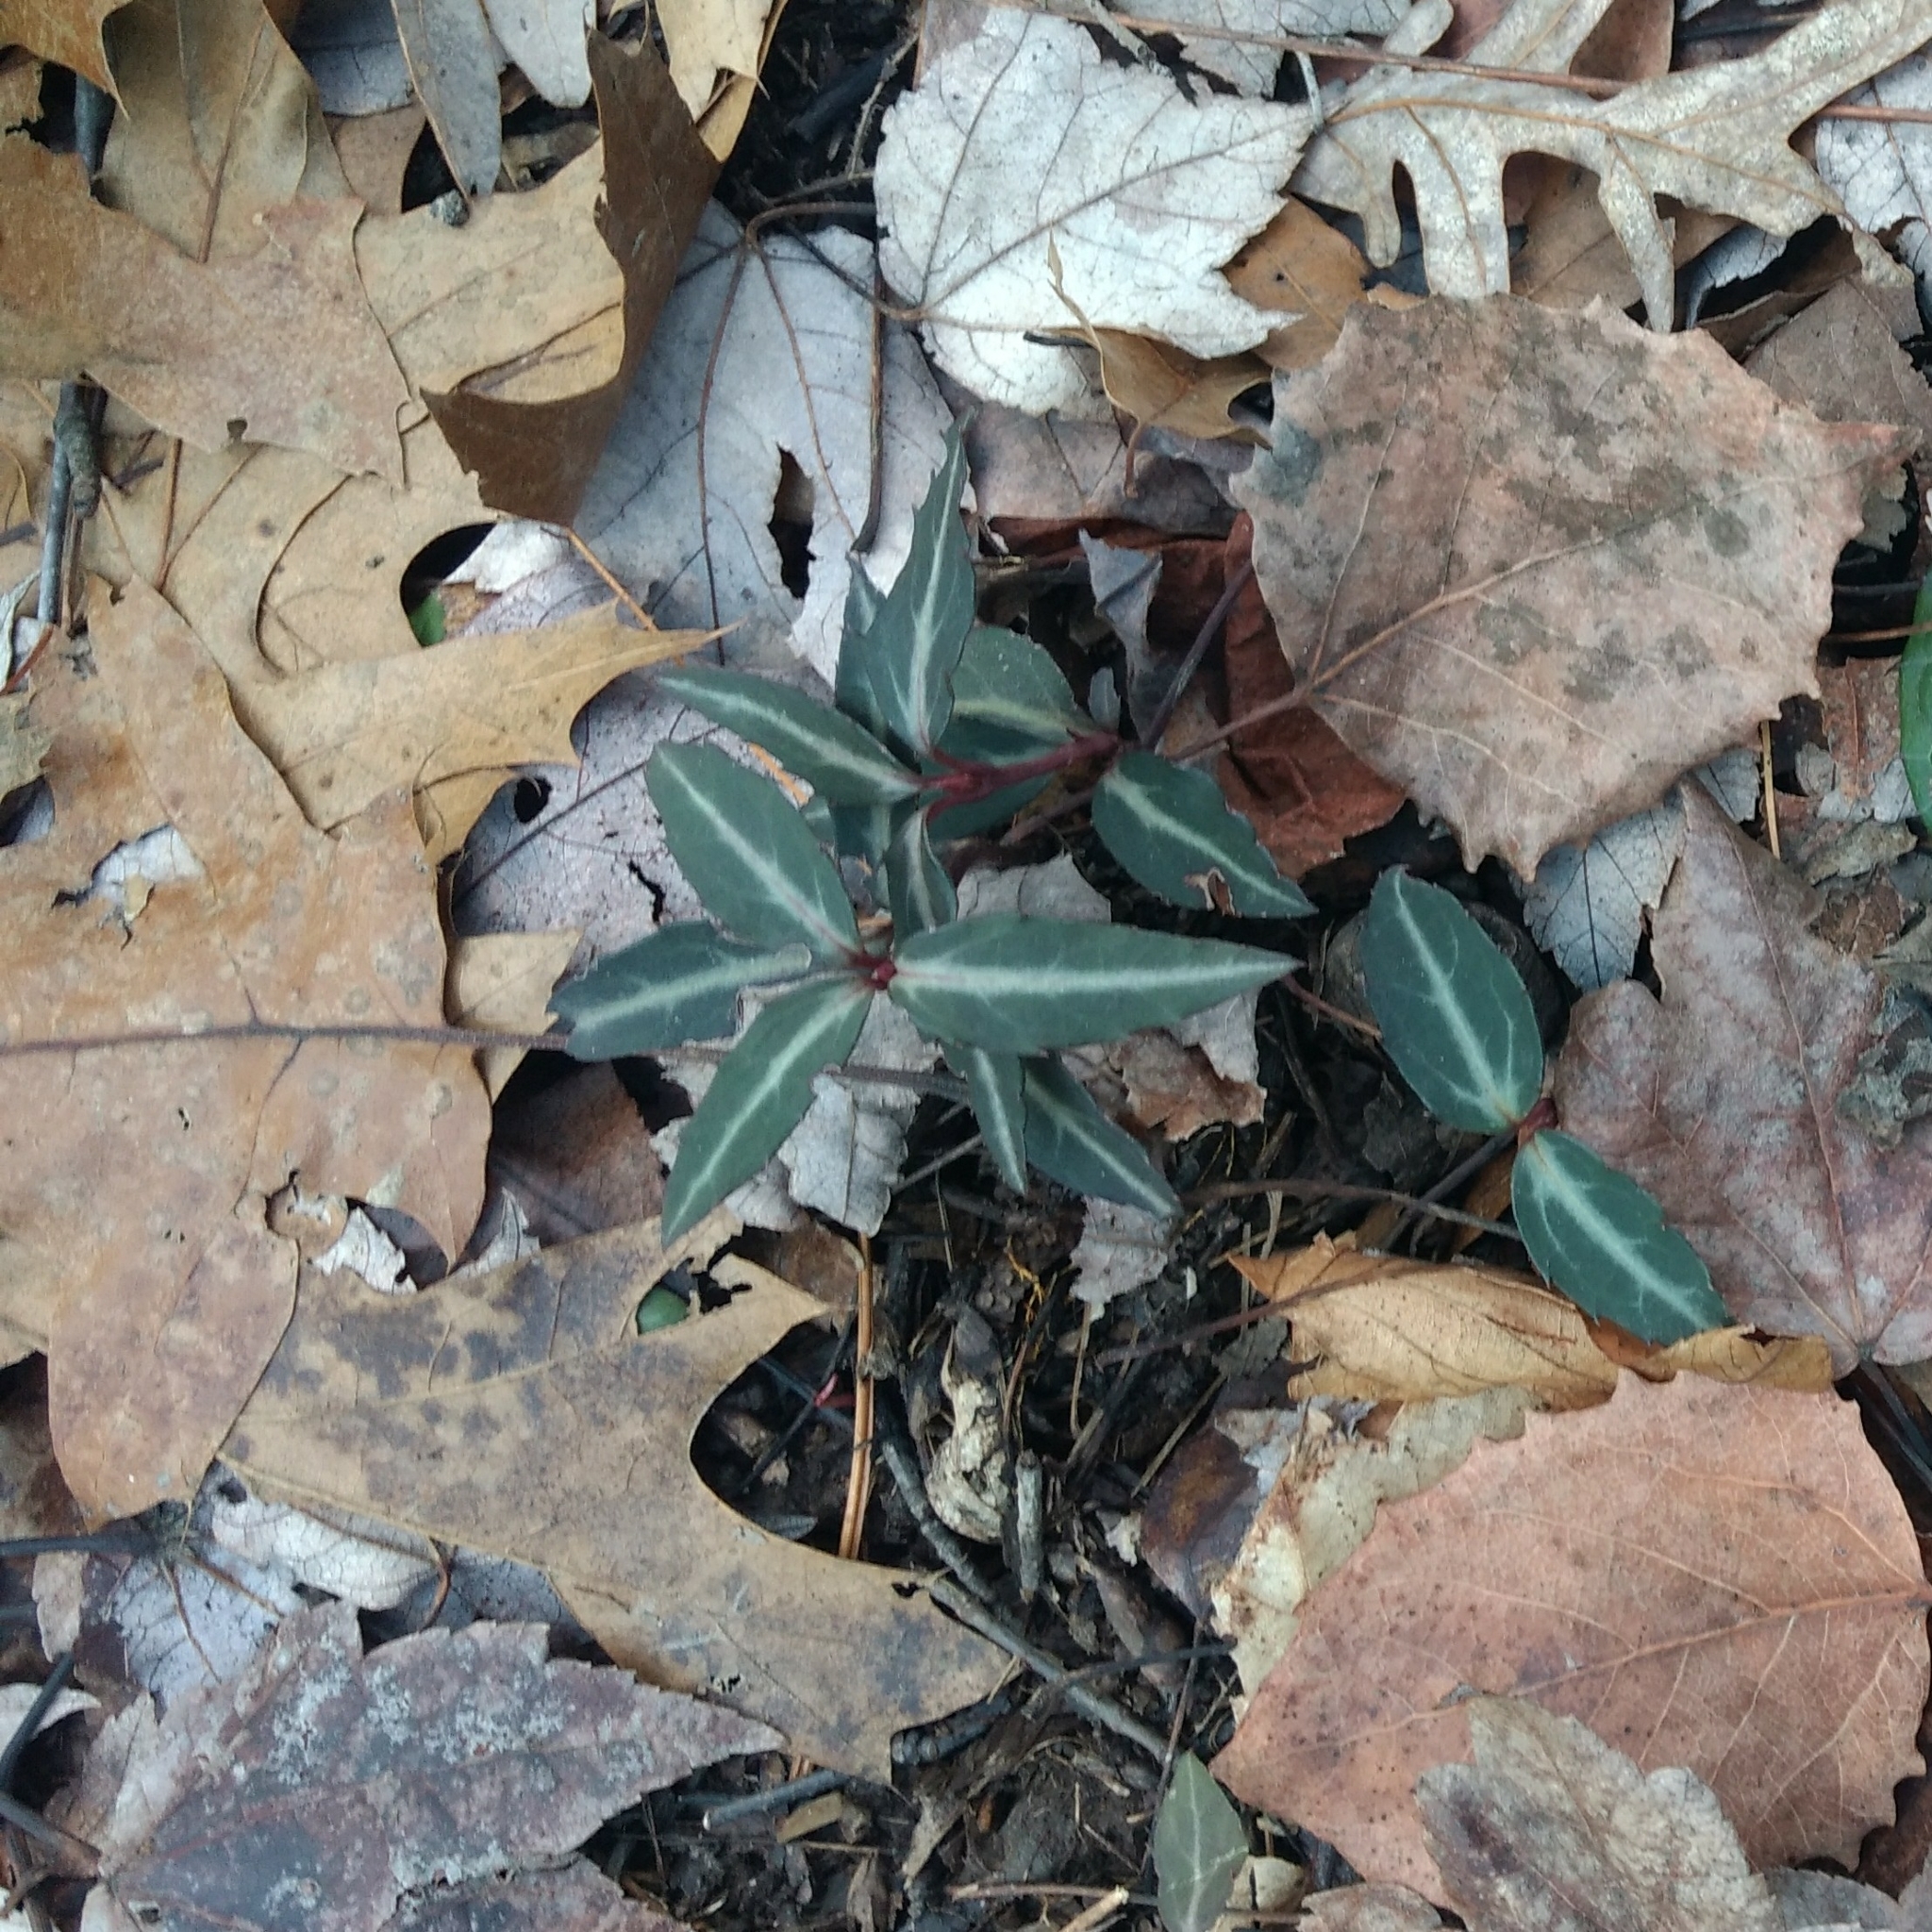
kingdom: Plantae
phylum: Tracheophyta
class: Magnoliopsida
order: Ericales
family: Ericaceae
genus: Chimaphila
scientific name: Chimaphila maculata
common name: Spotted pipsissewa
